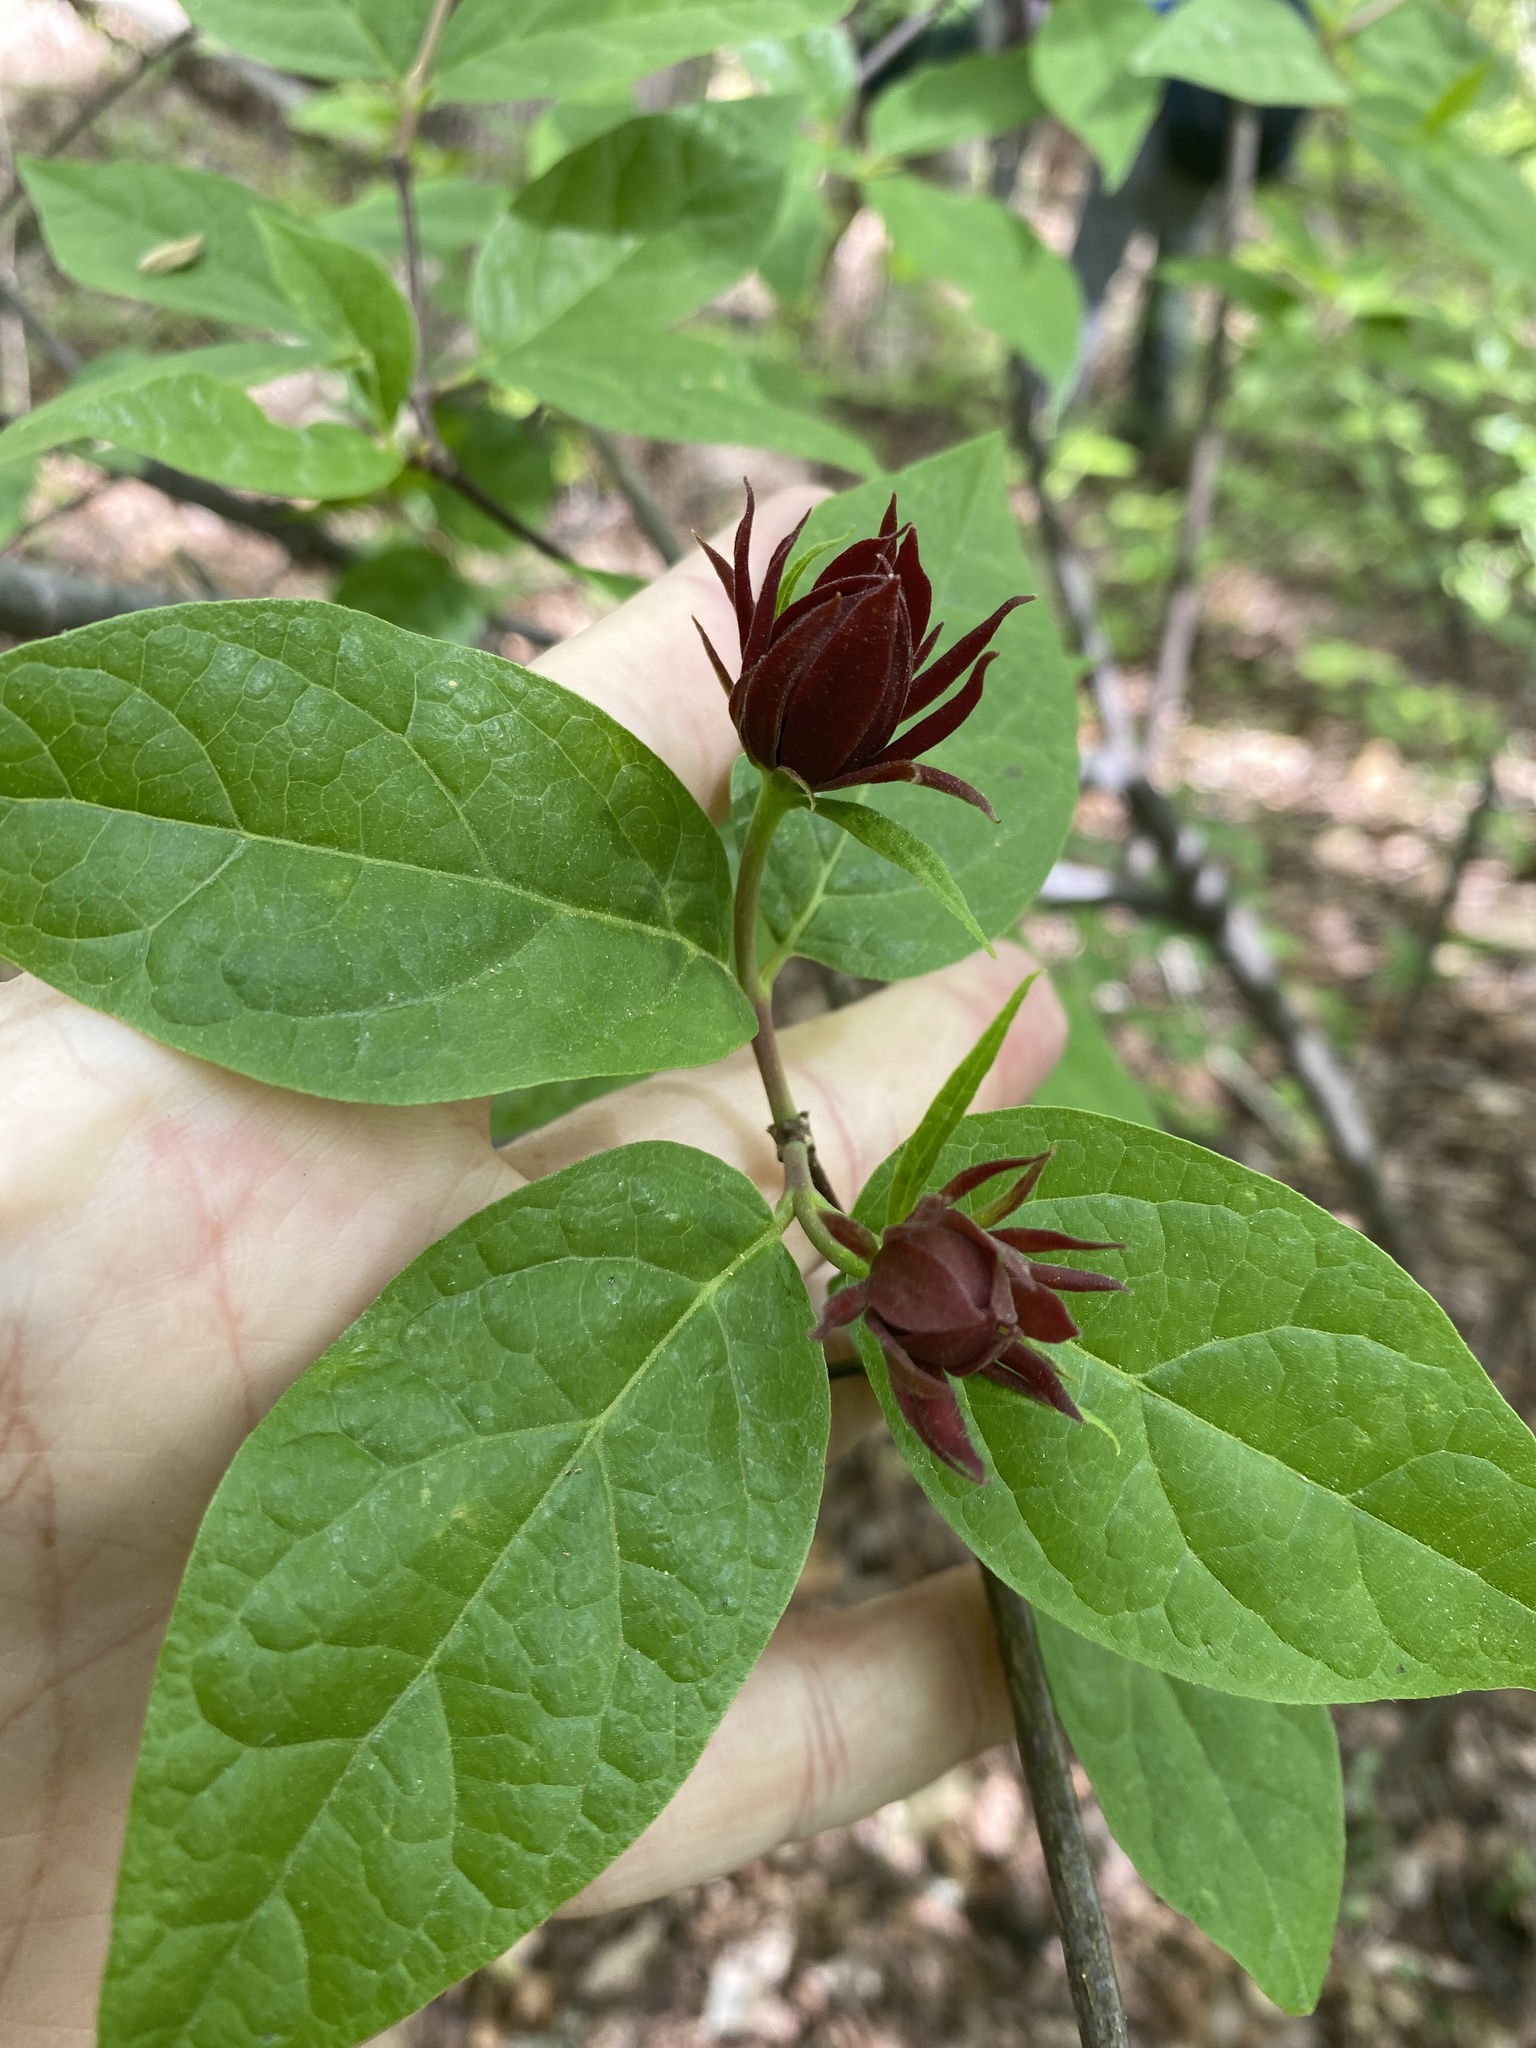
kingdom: Plantae
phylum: Tracheophyta
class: Magnoliopsida
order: Laurales
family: Calycanthaceae
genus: Calycanthus
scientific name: Calycanthus floridus
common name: Carolina-allspice
